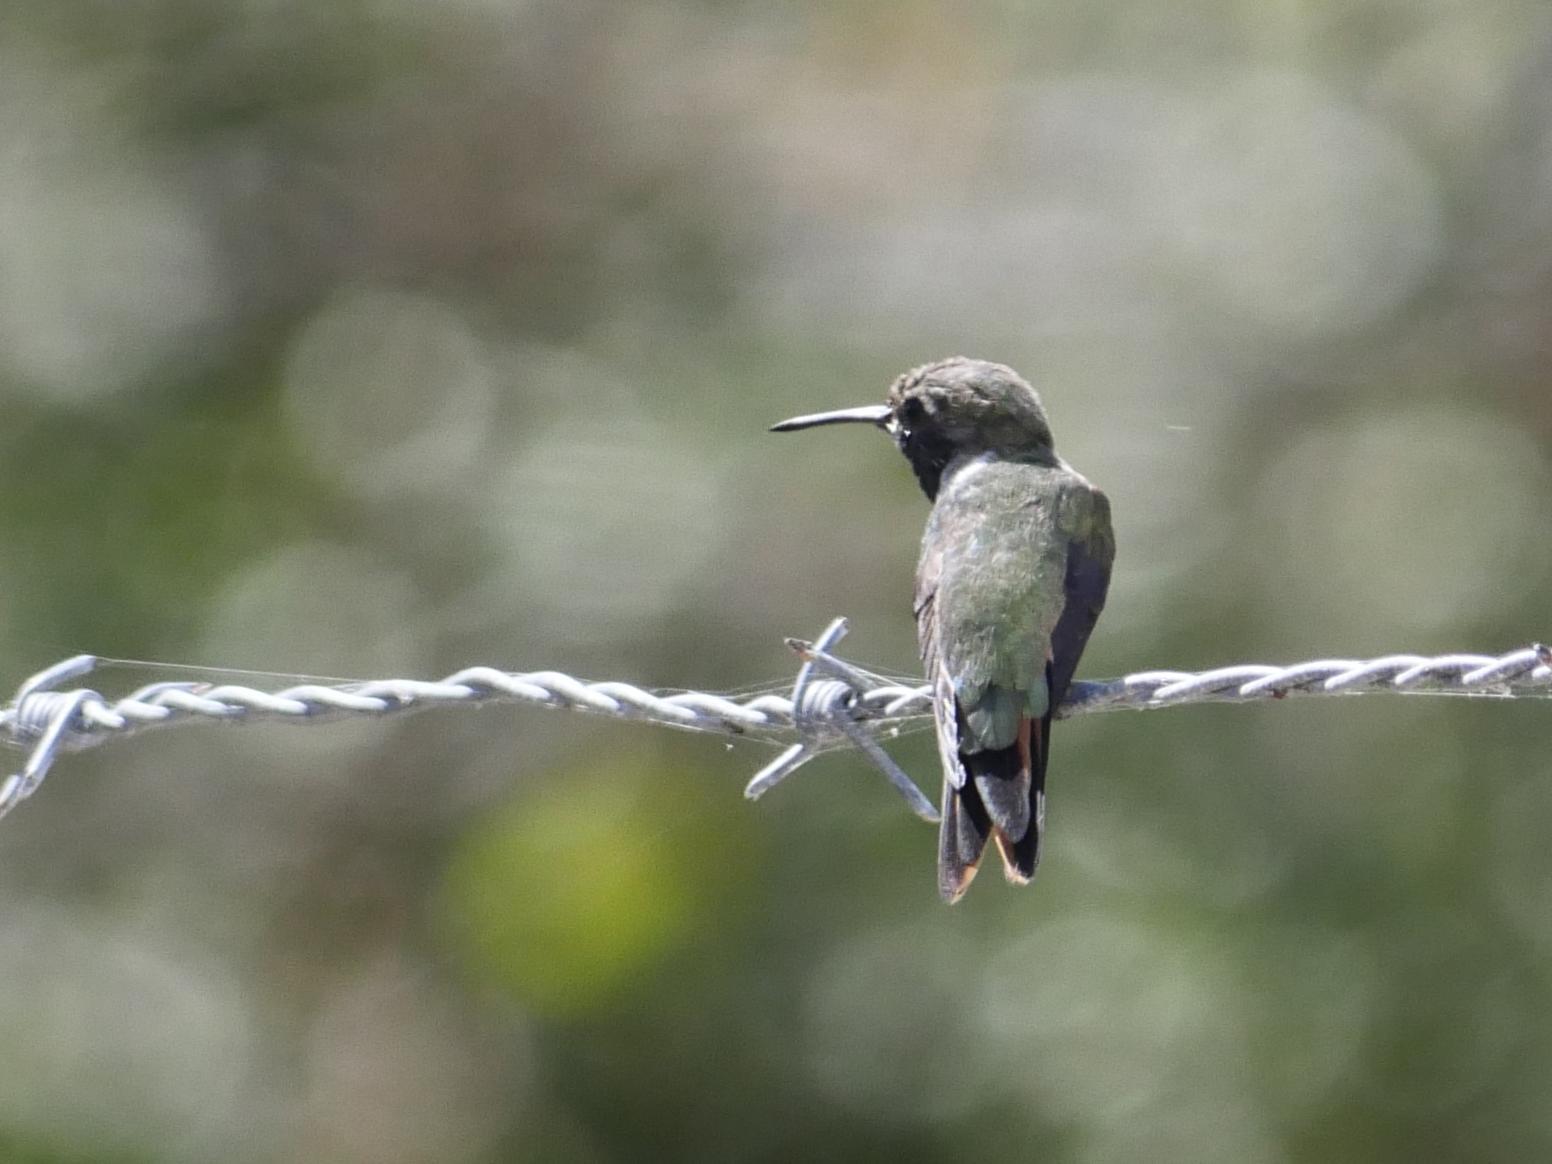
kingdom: Animalia
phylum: Chordata
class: Aves
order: Apodiformes
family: Trochilidae
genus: Nesophlox
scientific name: Nesophlox evelynae
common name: Bahama woodstar
